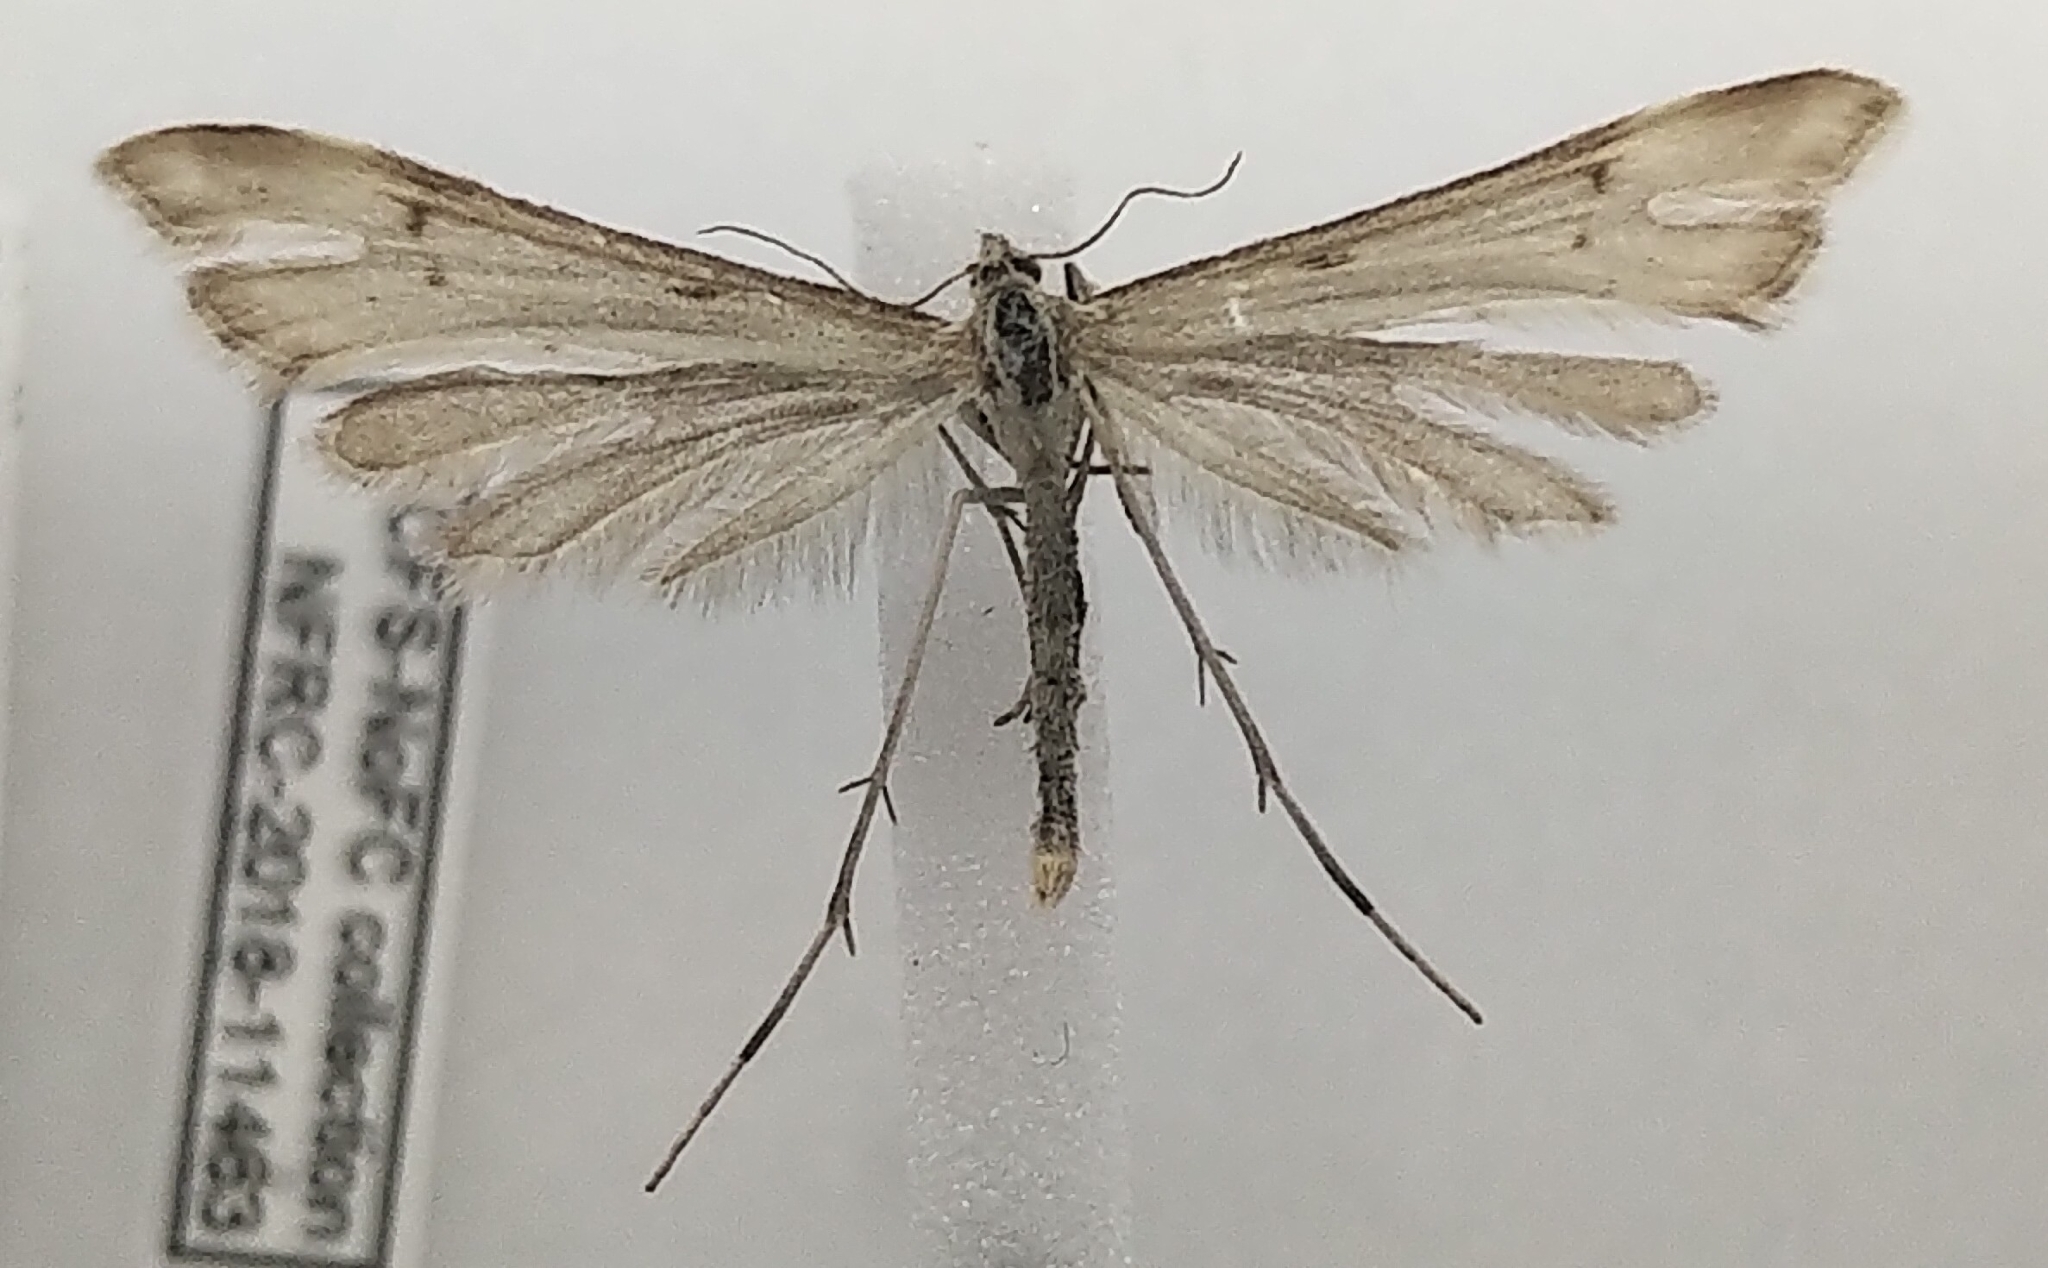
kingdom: Animalia
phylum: Arthropoda
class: Insecta
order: Lepidoptera
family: Pterophoridae
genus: Gillmeria
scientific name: Gillmeria albertae
